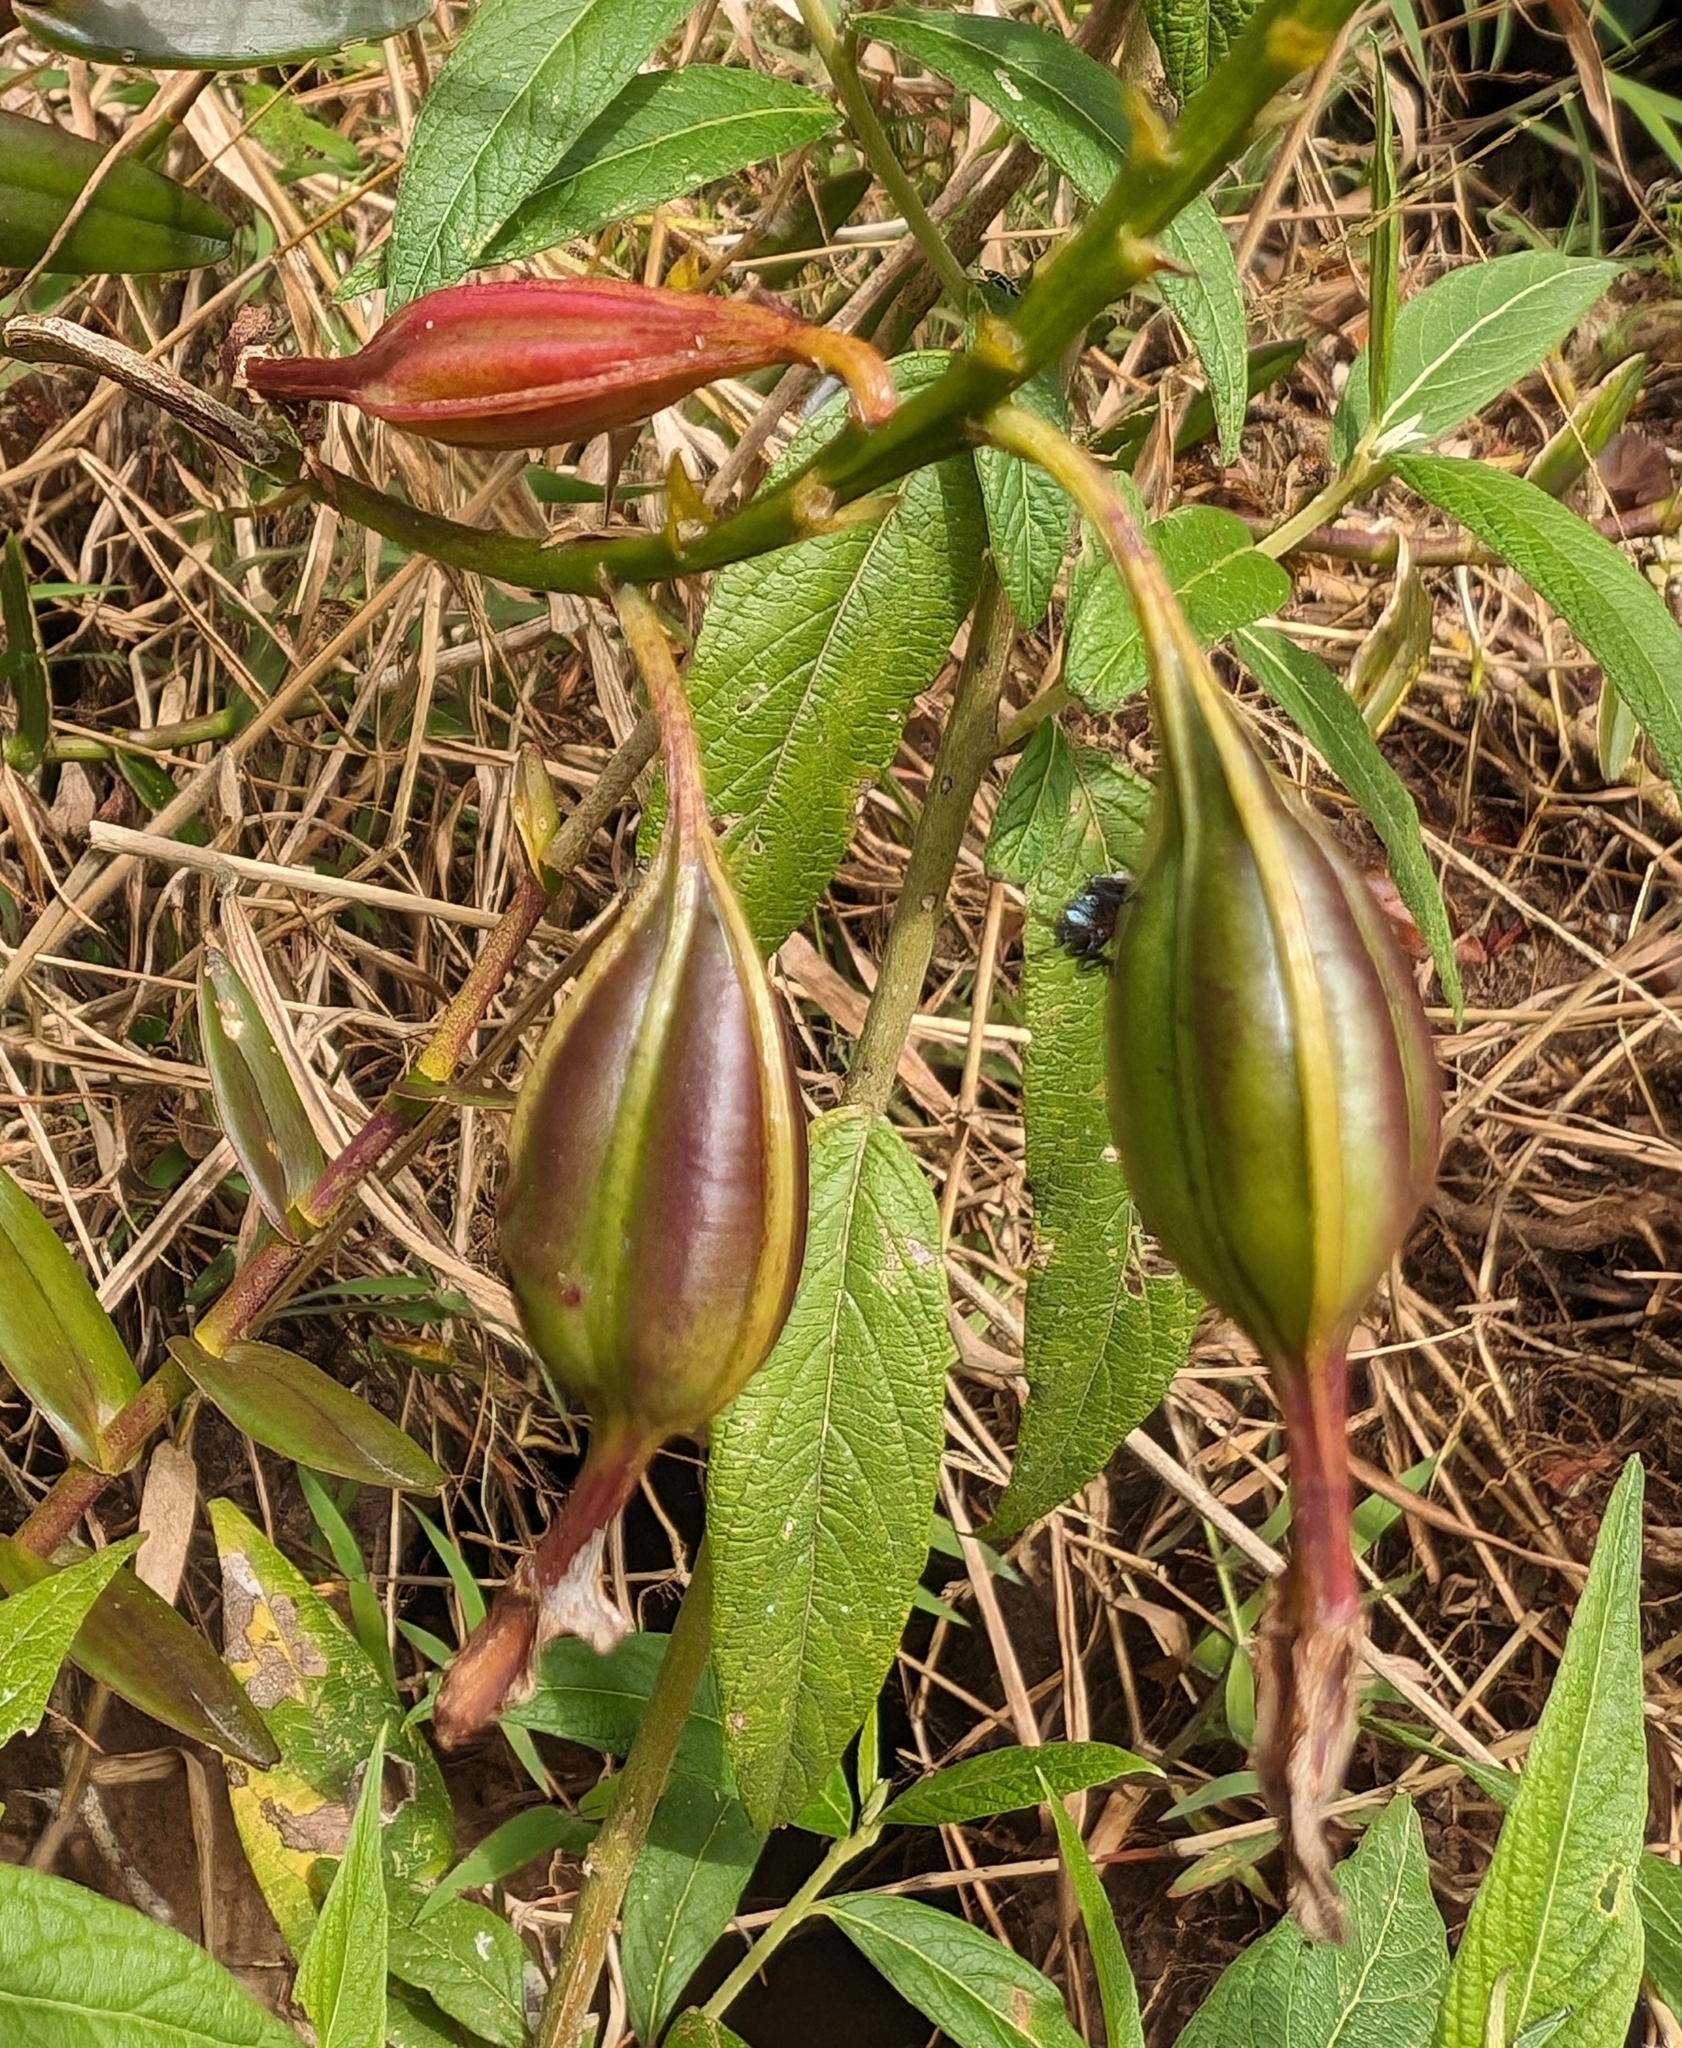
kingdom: Plantae
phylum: Tracheophyta
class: Liliopsida
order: Asparagales
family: Orchidaceae
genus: Epidendrum
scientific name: Epidendrum radicans
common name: Fire star orchid
